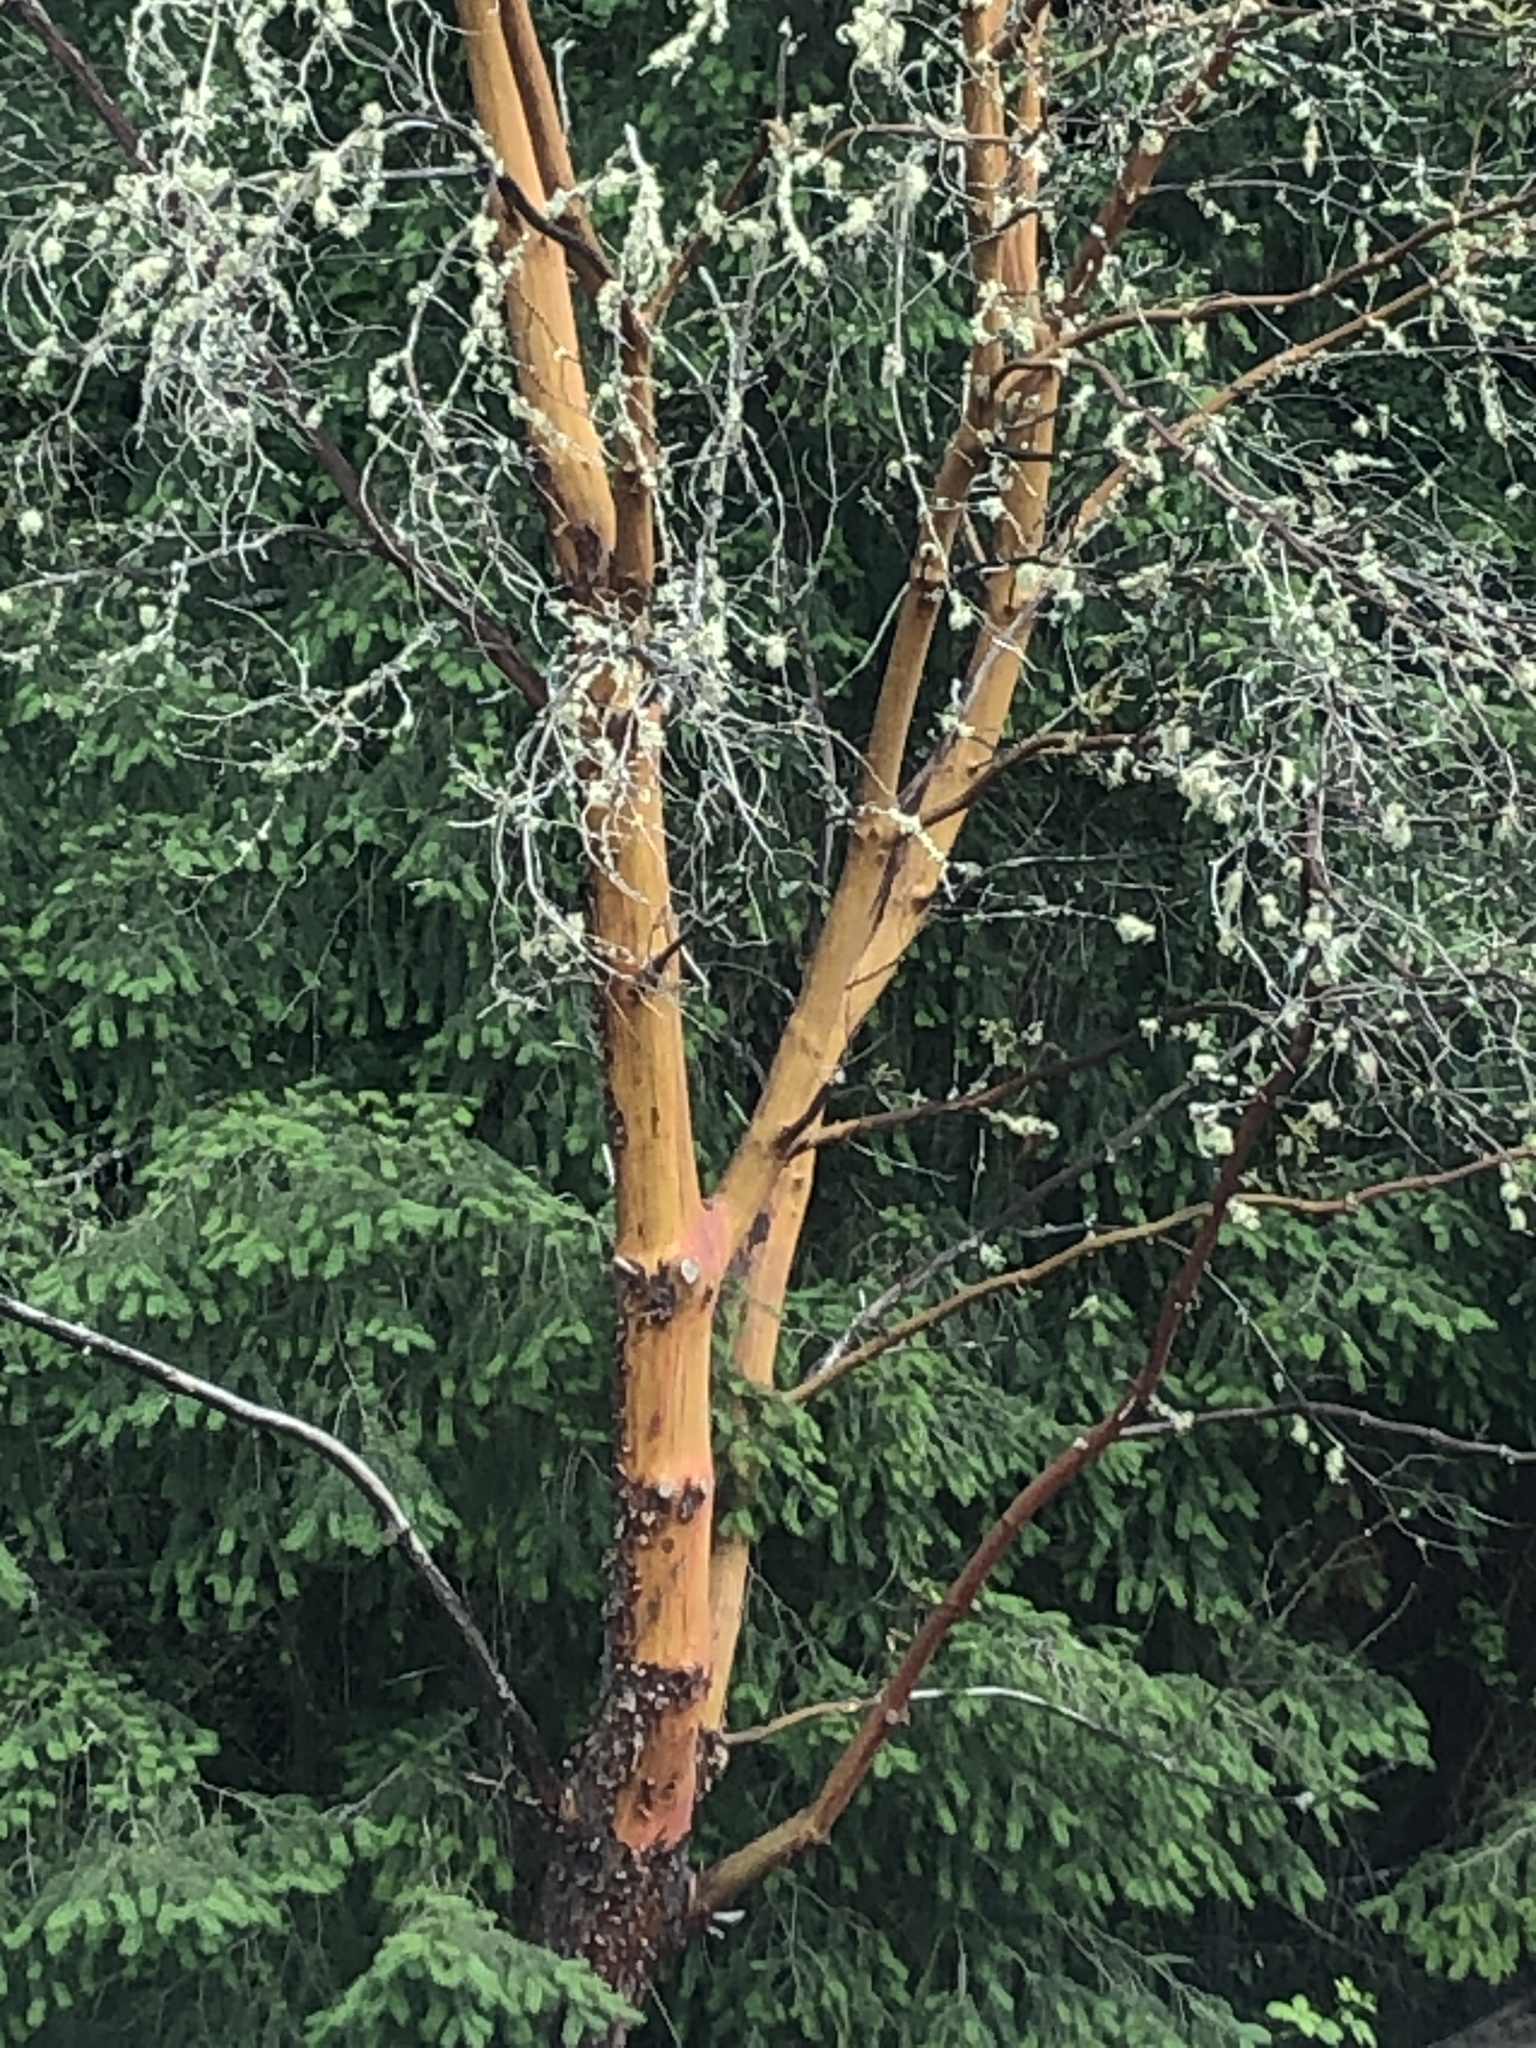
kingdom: Plantae
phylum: Tracheophyta
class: Magnoliopsida
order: Ericales
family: Ericaceae
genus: Arbutus
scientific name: Arbutus menziesii
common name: Pacific madrone
